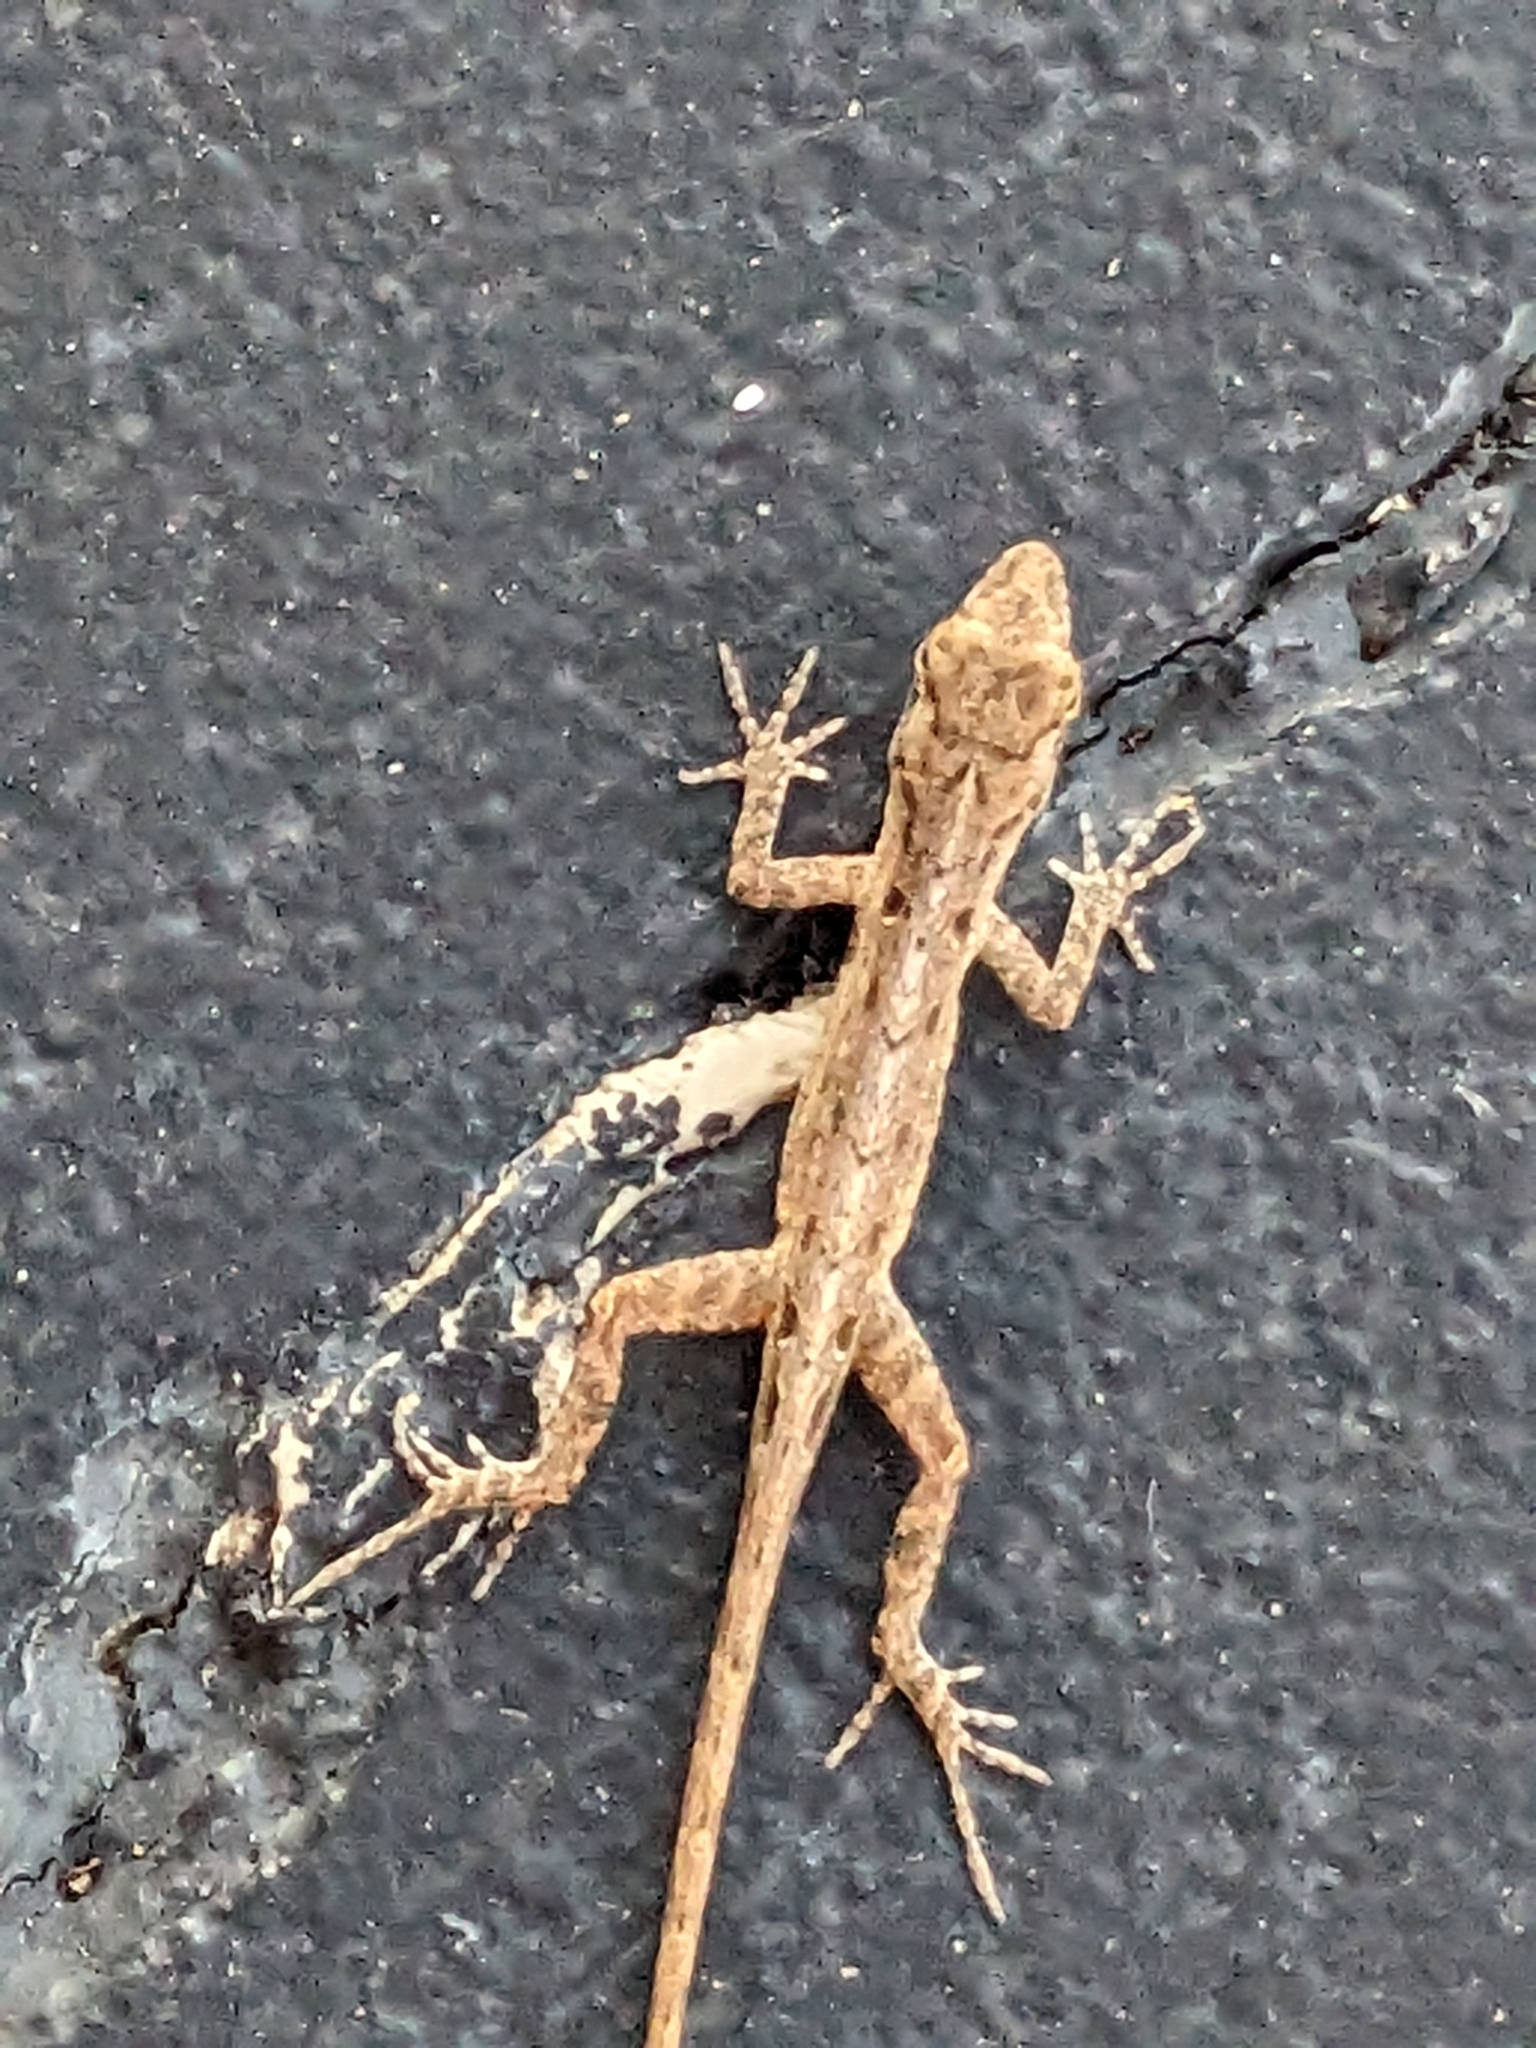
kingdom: Animalia
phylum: Chordata
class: Squamata
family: Dactyloidae
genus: Anolis
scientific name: Anolis sagrei
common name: Brown anole
